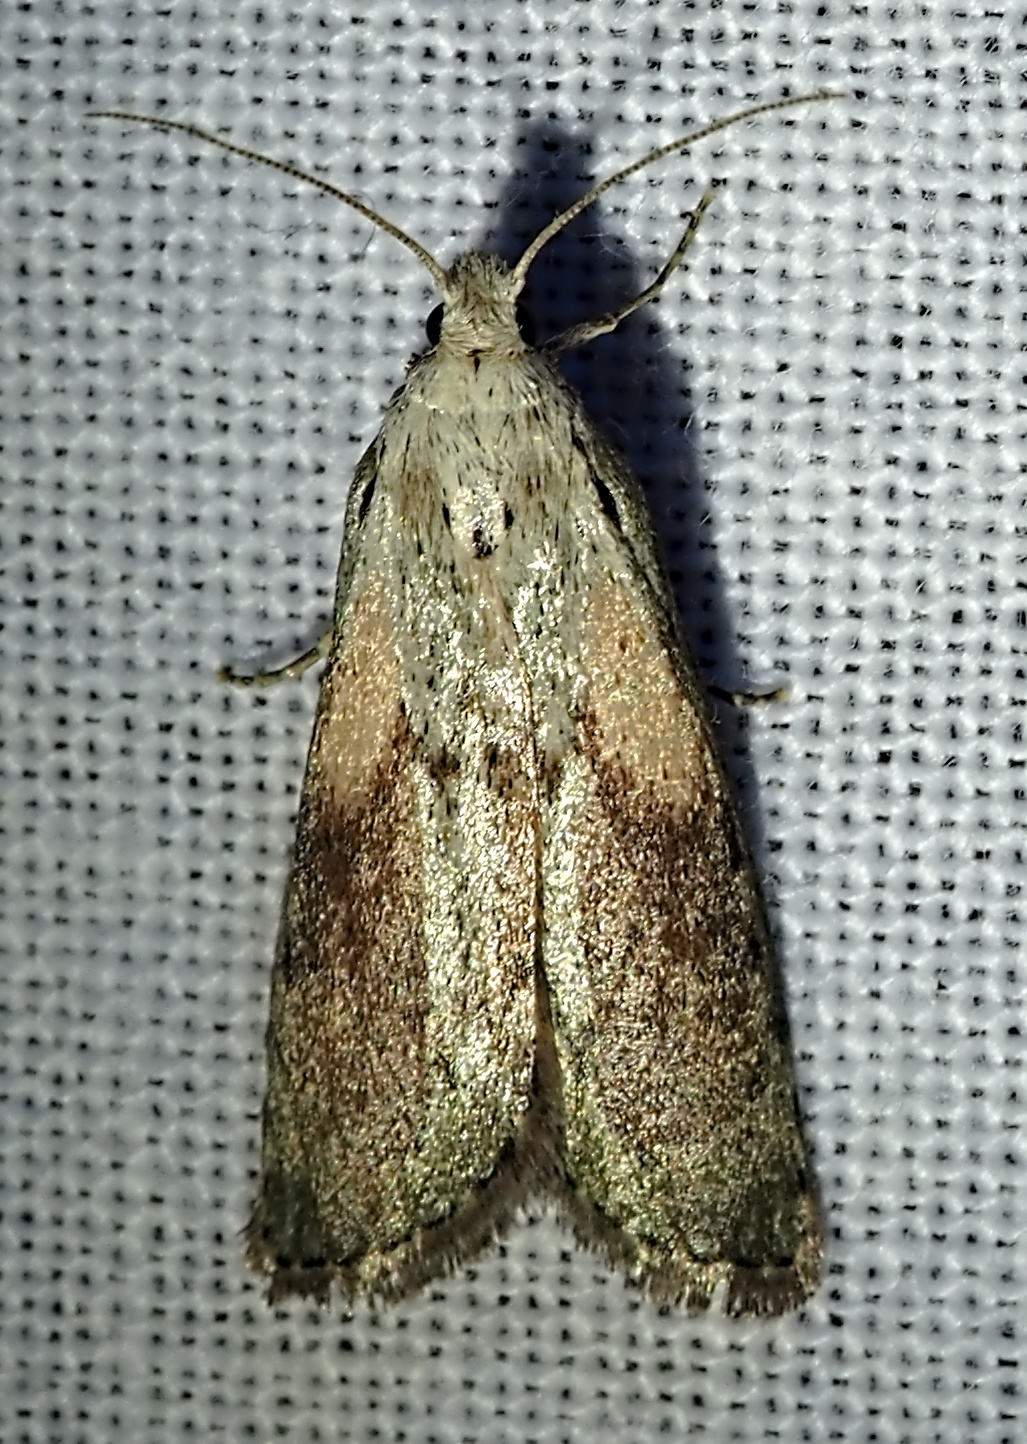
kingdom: Animalia
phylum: Arthropoda
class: Insecta
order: Lepidoptera
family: Pyralidae
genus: Aphomia
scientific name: Aphomia sociella
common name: Bee moth
